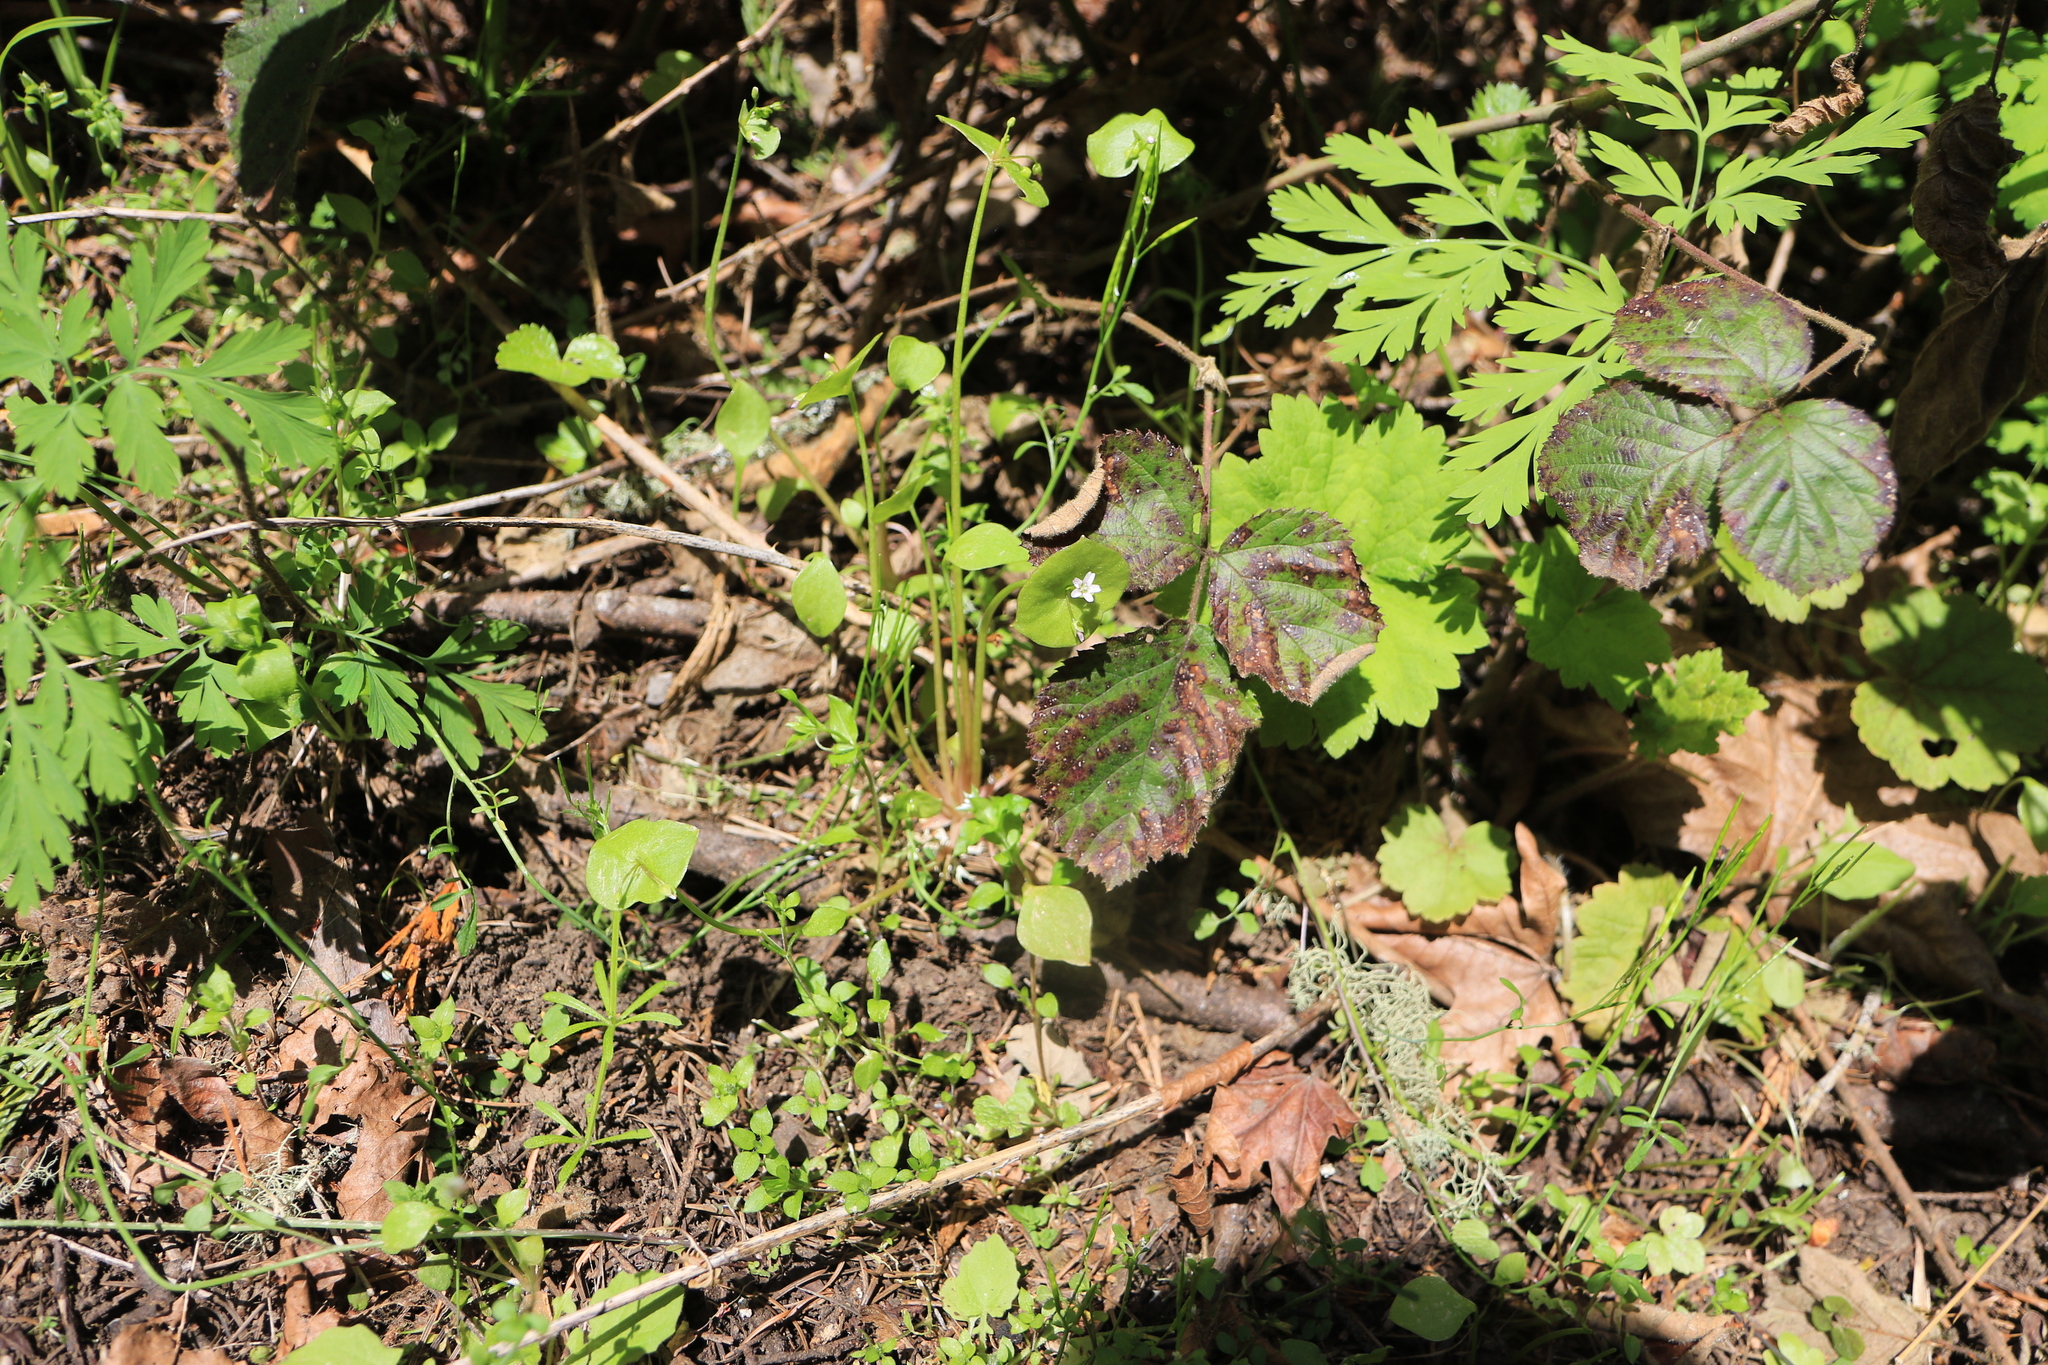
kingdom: Plantae
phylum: Tracheophyta
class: Magnoliopsida
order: Caryophyllales
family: Montiaceae
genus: Claytonia
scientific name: Claytonia perfoliata
